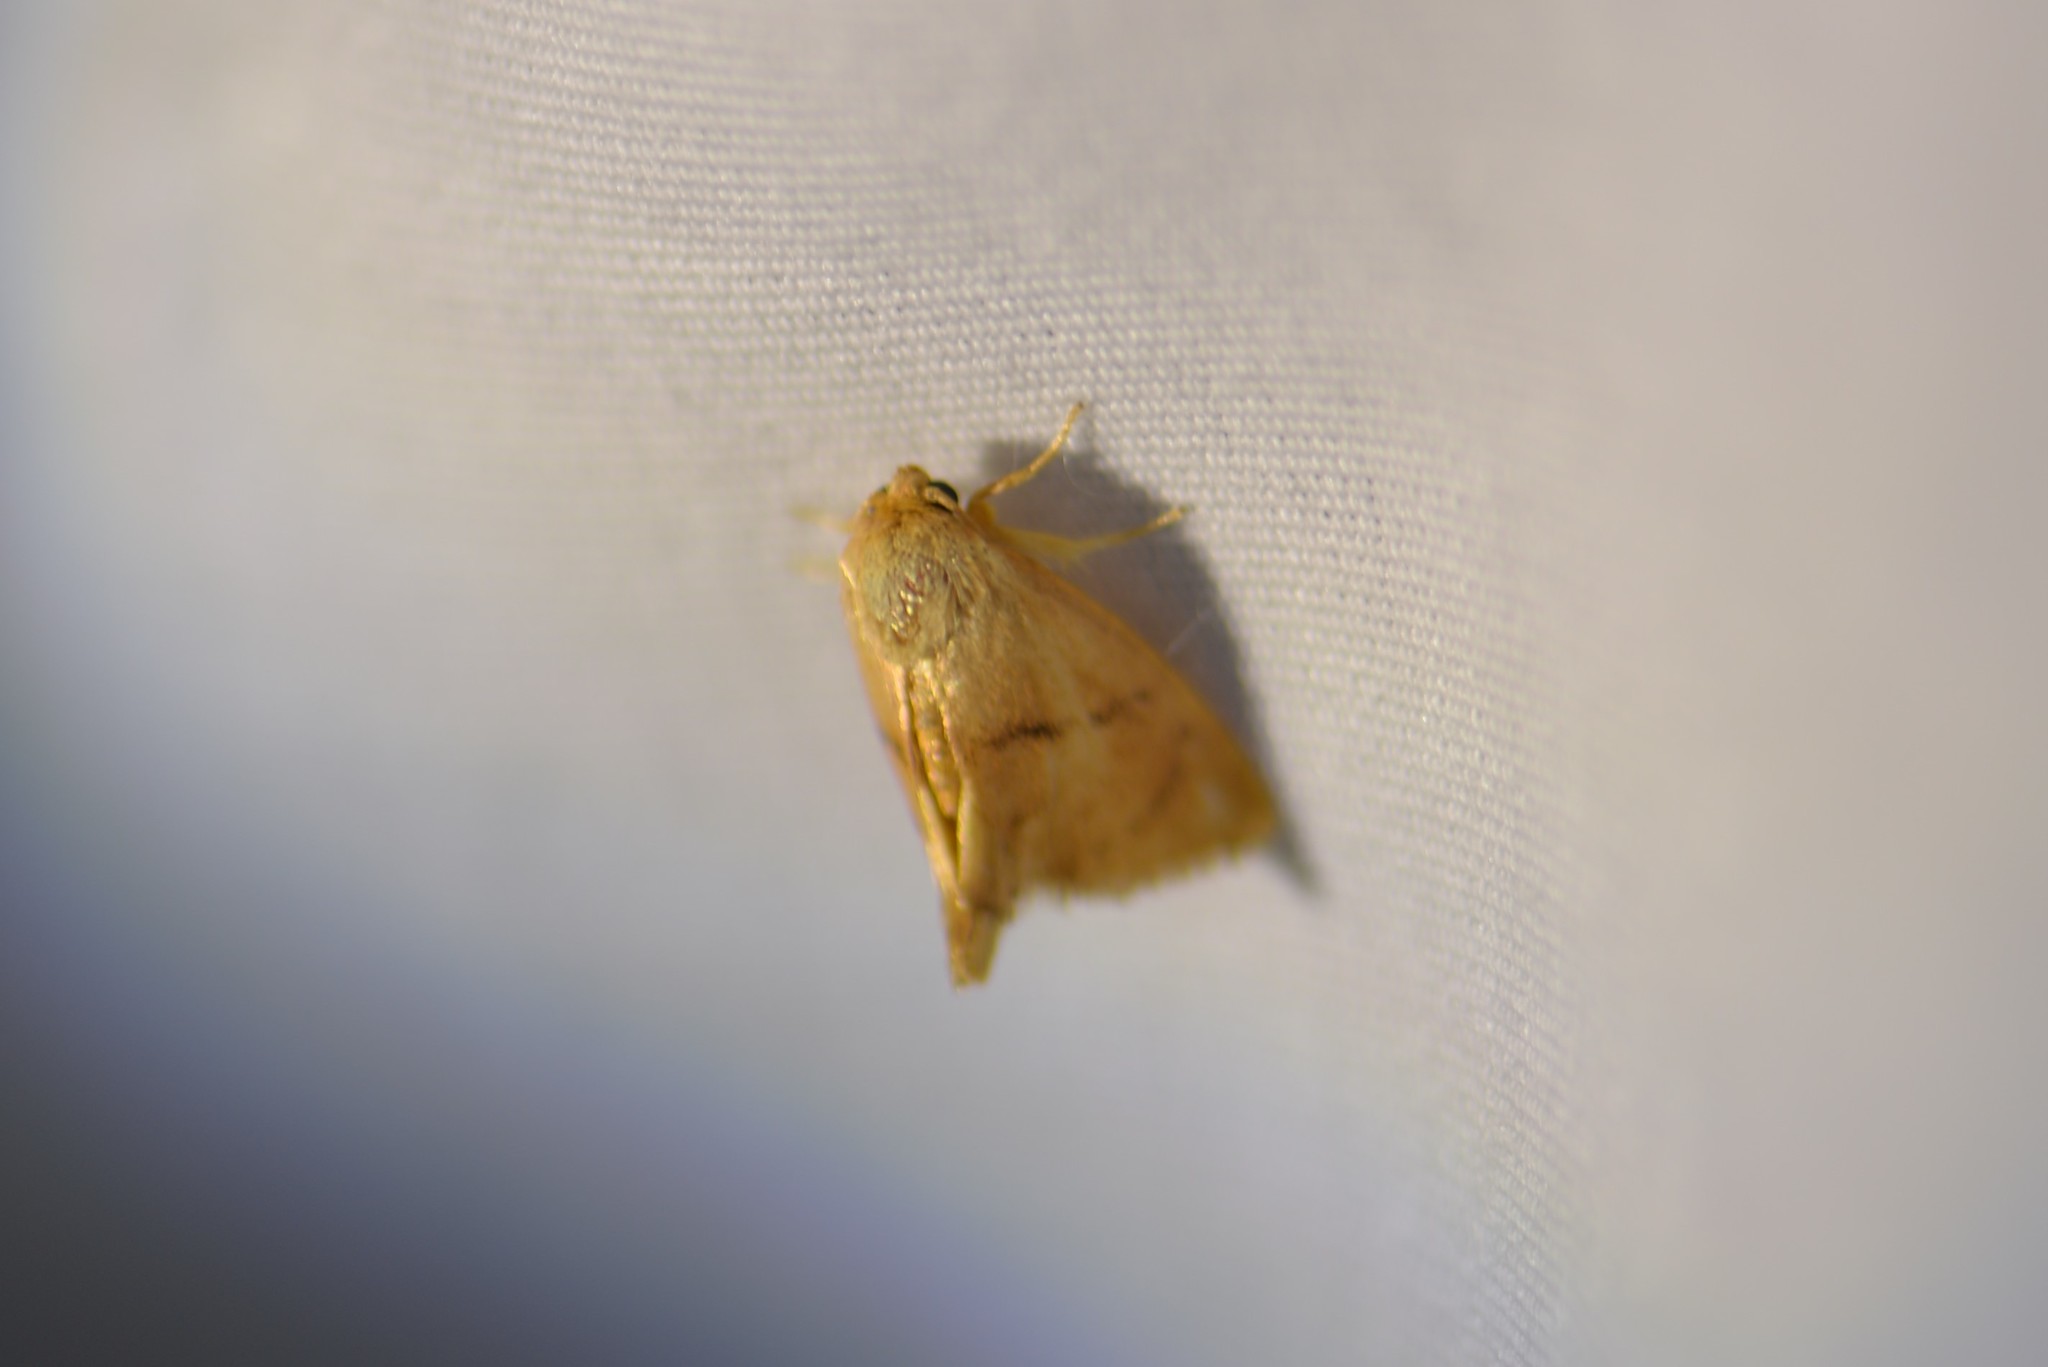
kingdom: Animalia
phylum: Arthropoda
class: Insecta
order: Lepidoptera
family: Limacodidae
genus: Tortricidia
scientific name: Tortricidia flexuosa
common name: Abbreviated button slug moth
